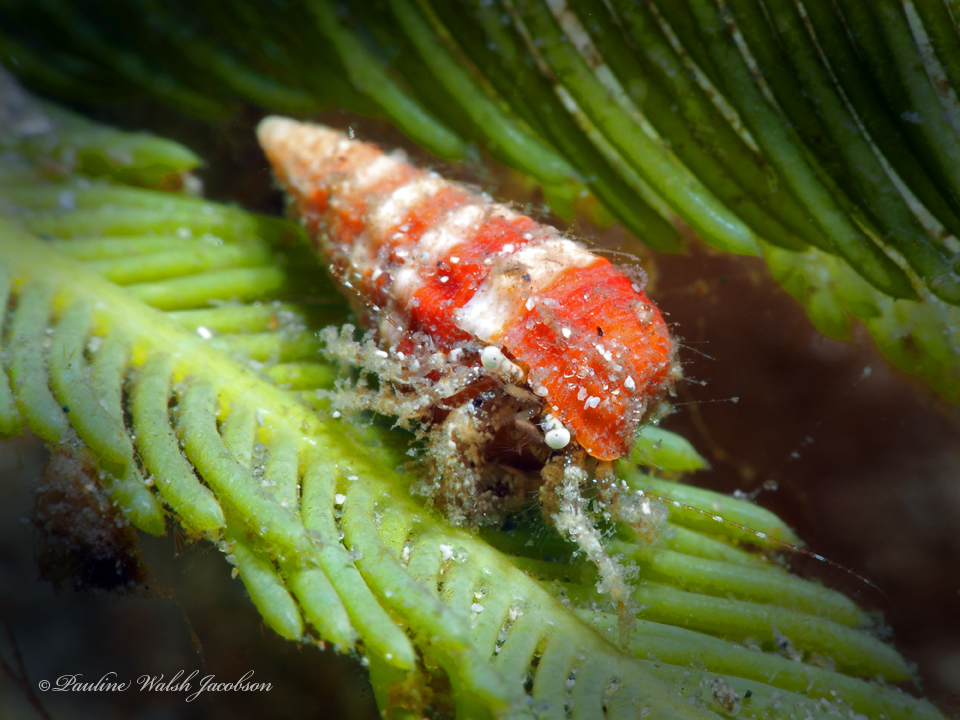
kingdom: Animalia
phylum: Arthropoda
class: Malacostraca
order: Decapoda
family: Paguridae
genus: Pagurus
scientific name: Pagurus maclaughlinae
